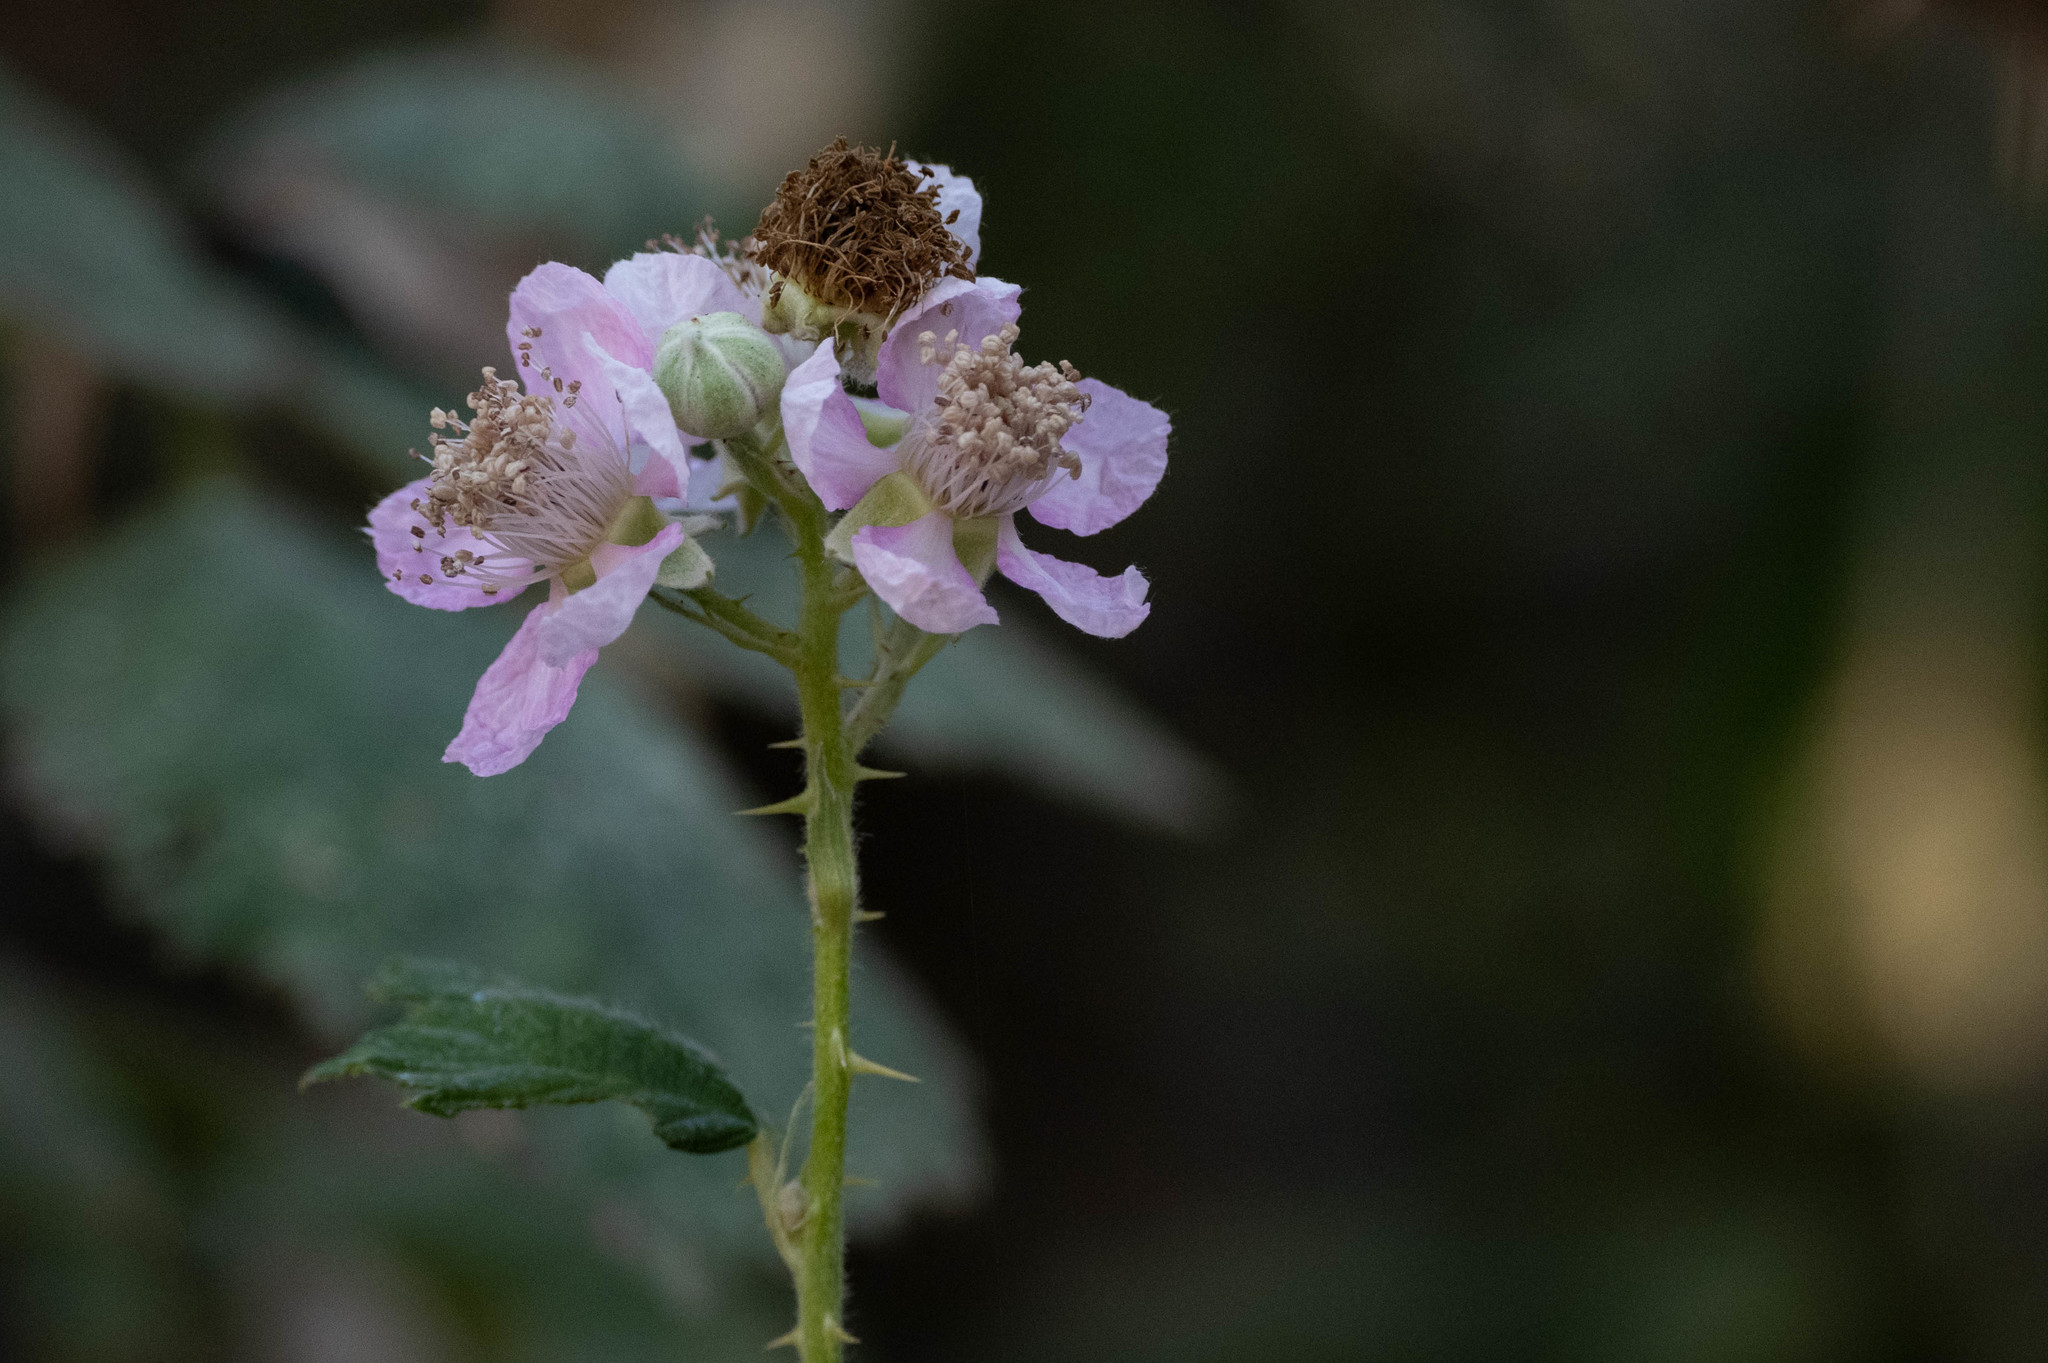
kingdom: Plantae
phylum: Tracheophyta
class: Magnoliopsida
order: Rosales
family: Rosaceae
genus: Rubus
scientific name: Rubus armeniacus
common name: Himalayan blackberry
